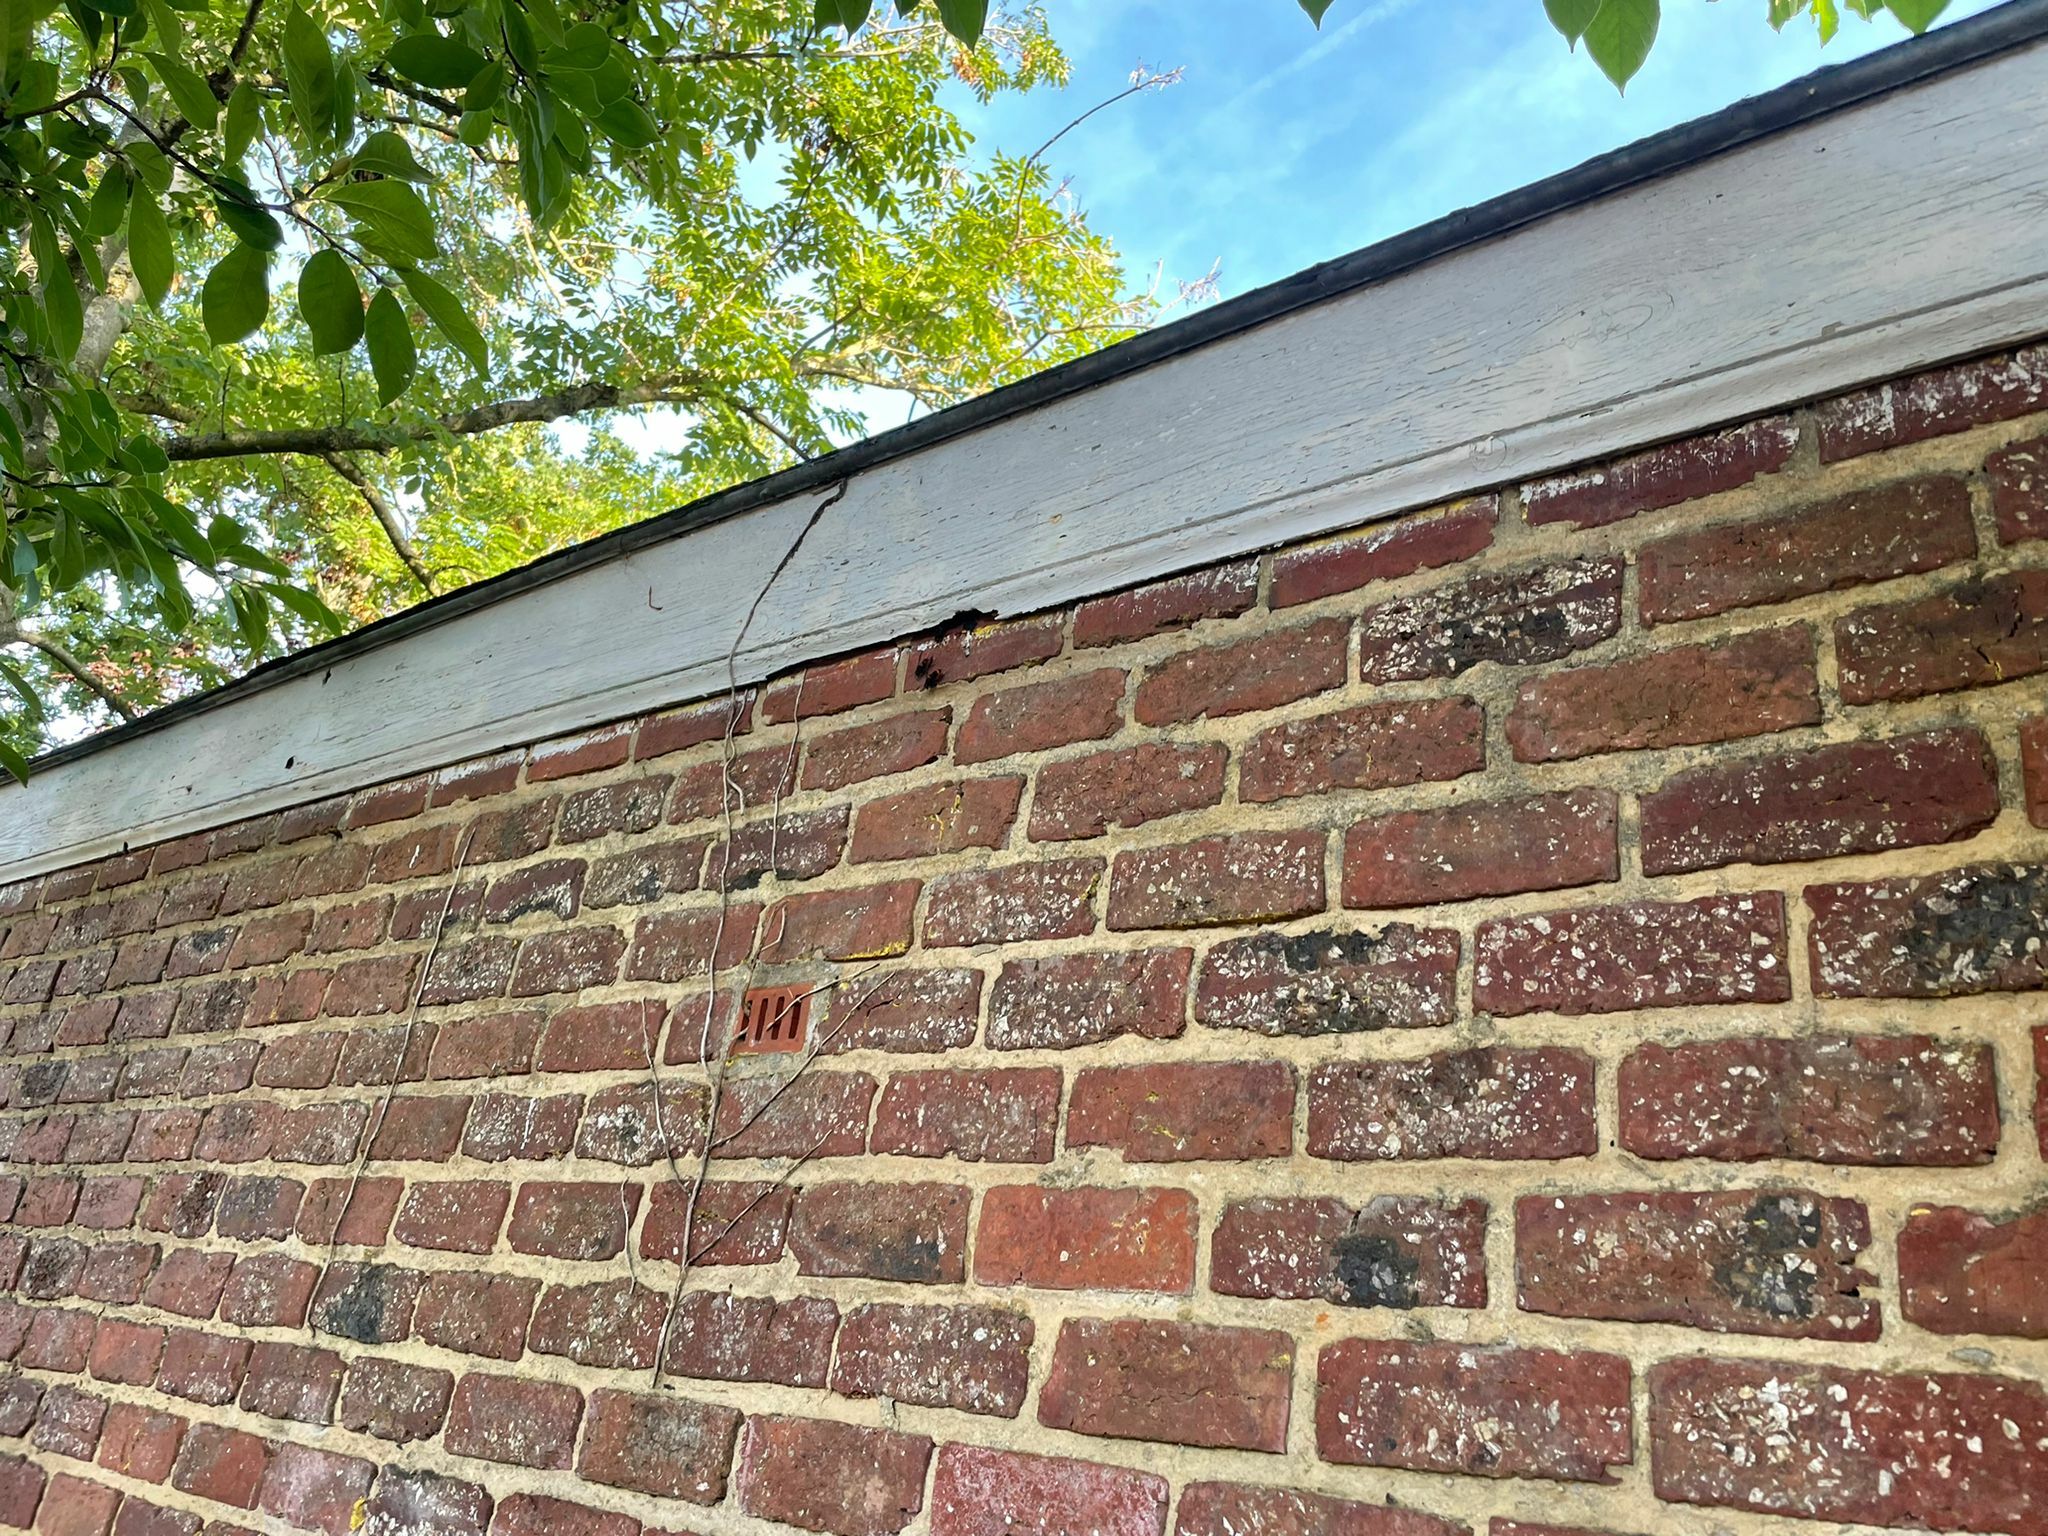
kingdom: Animalia
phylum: Arthropoda
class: Insecta
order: Hymenoptera
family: Vespidae
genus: Vespa
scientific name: Vespa velutina
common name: Asian hornet
